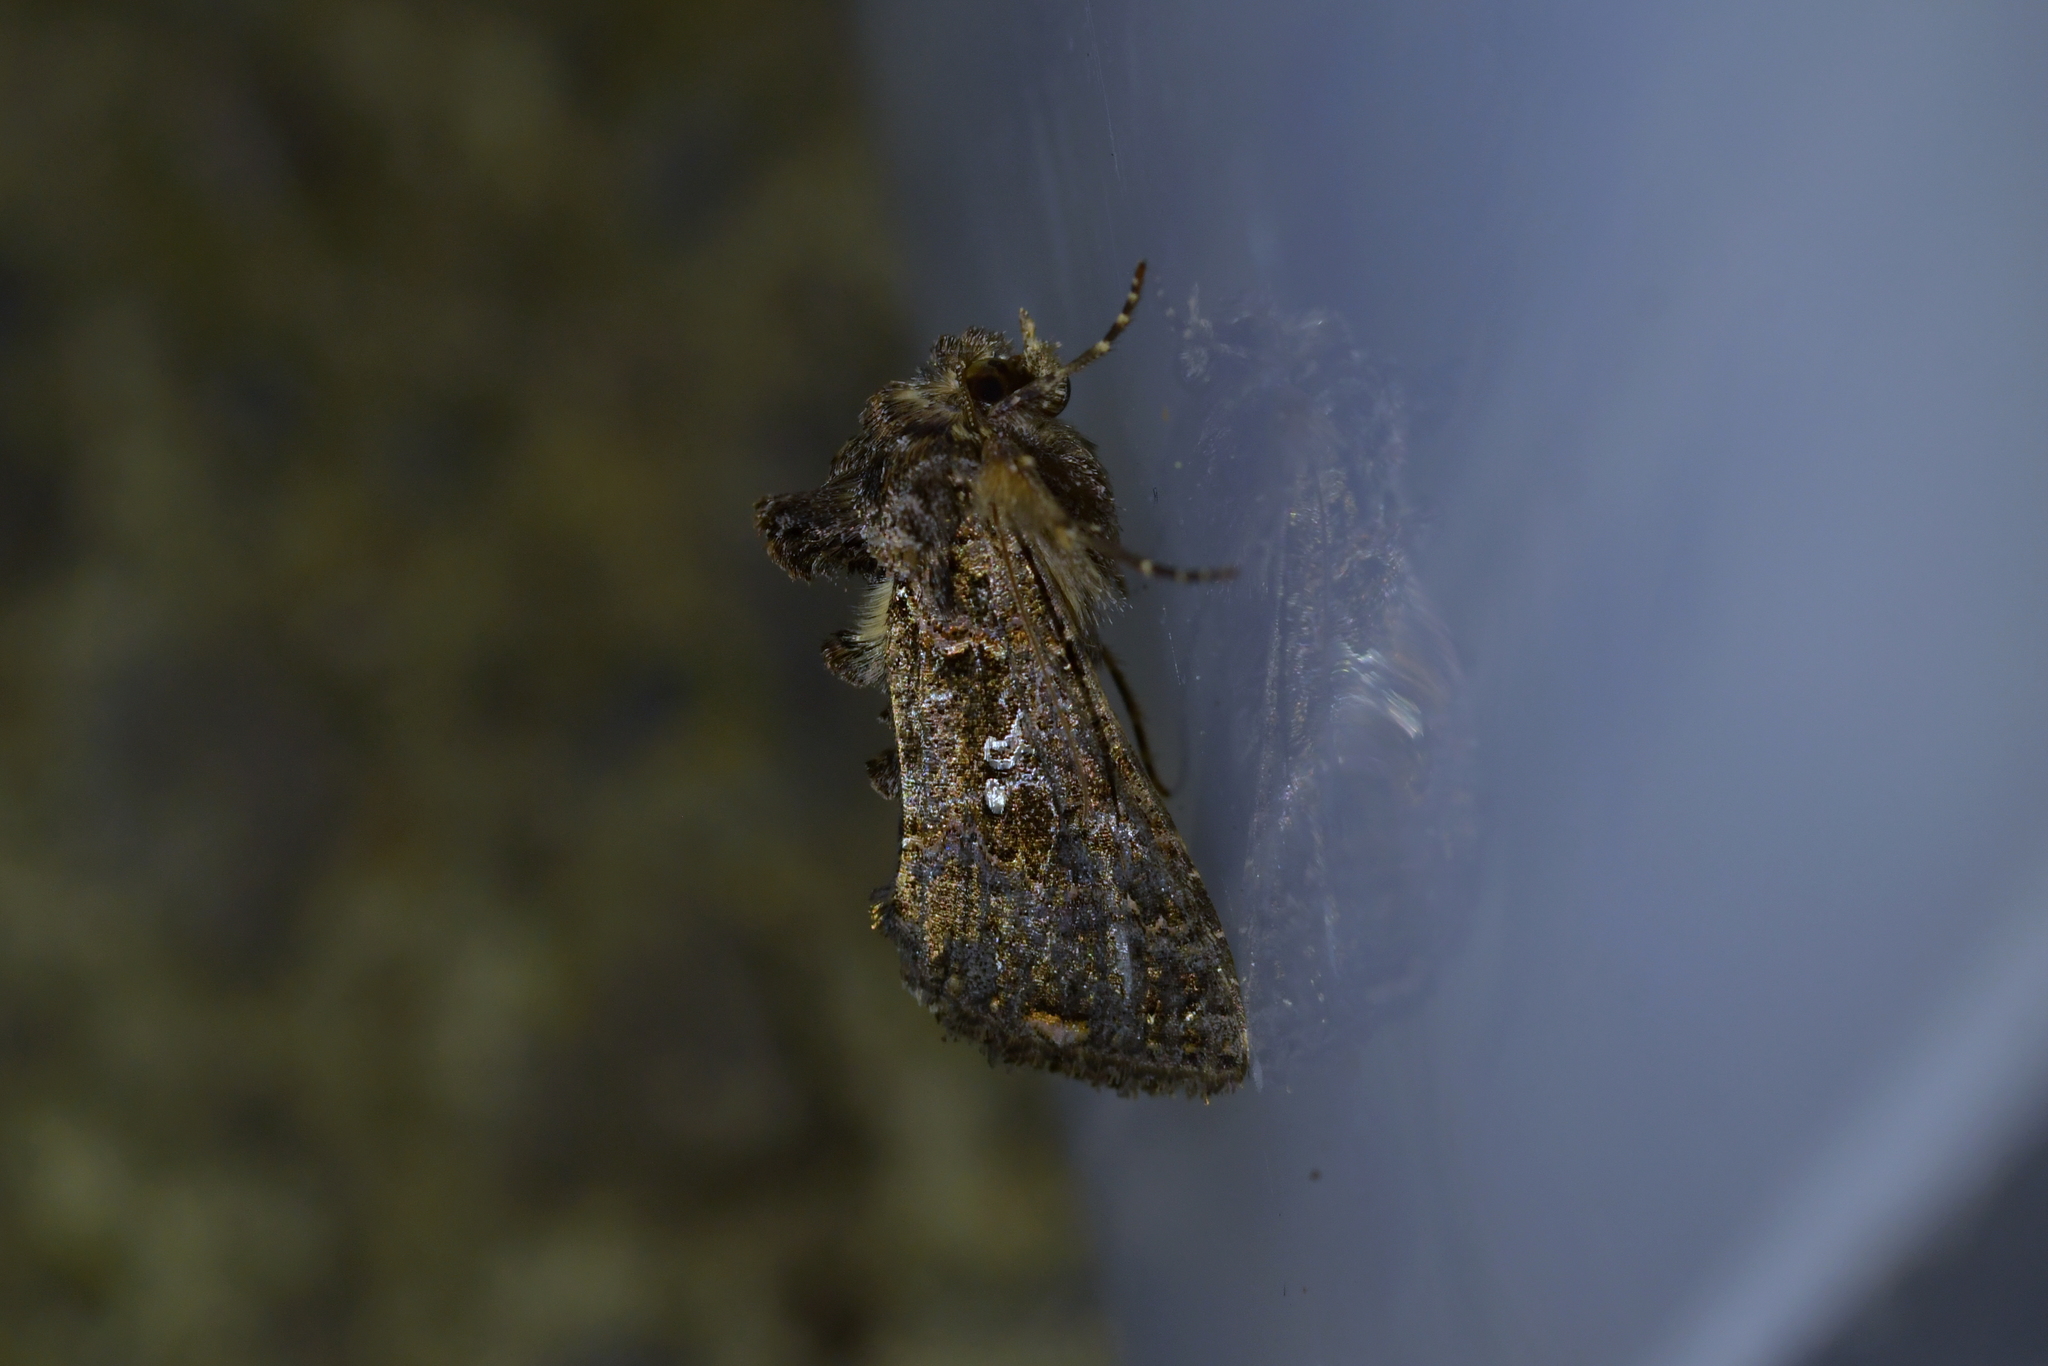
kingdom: Animalia
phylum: Arthropoda
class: Insecta
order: Lepidoptera
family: Noctuidae
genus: Ctenoplusia
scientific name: Ctenoplusia limbirena
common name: Scar bank gem
